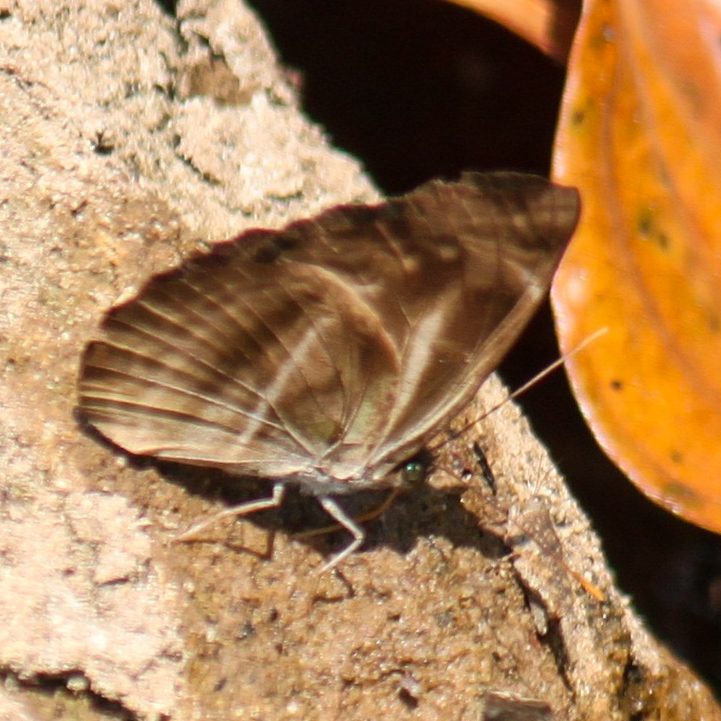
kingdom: Animalia
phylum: Arthropoda
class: Insecta
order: Lepidoptera
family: Nymphalidae
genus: Neptis
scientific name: Neptis harita
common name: Chocolate sailer
